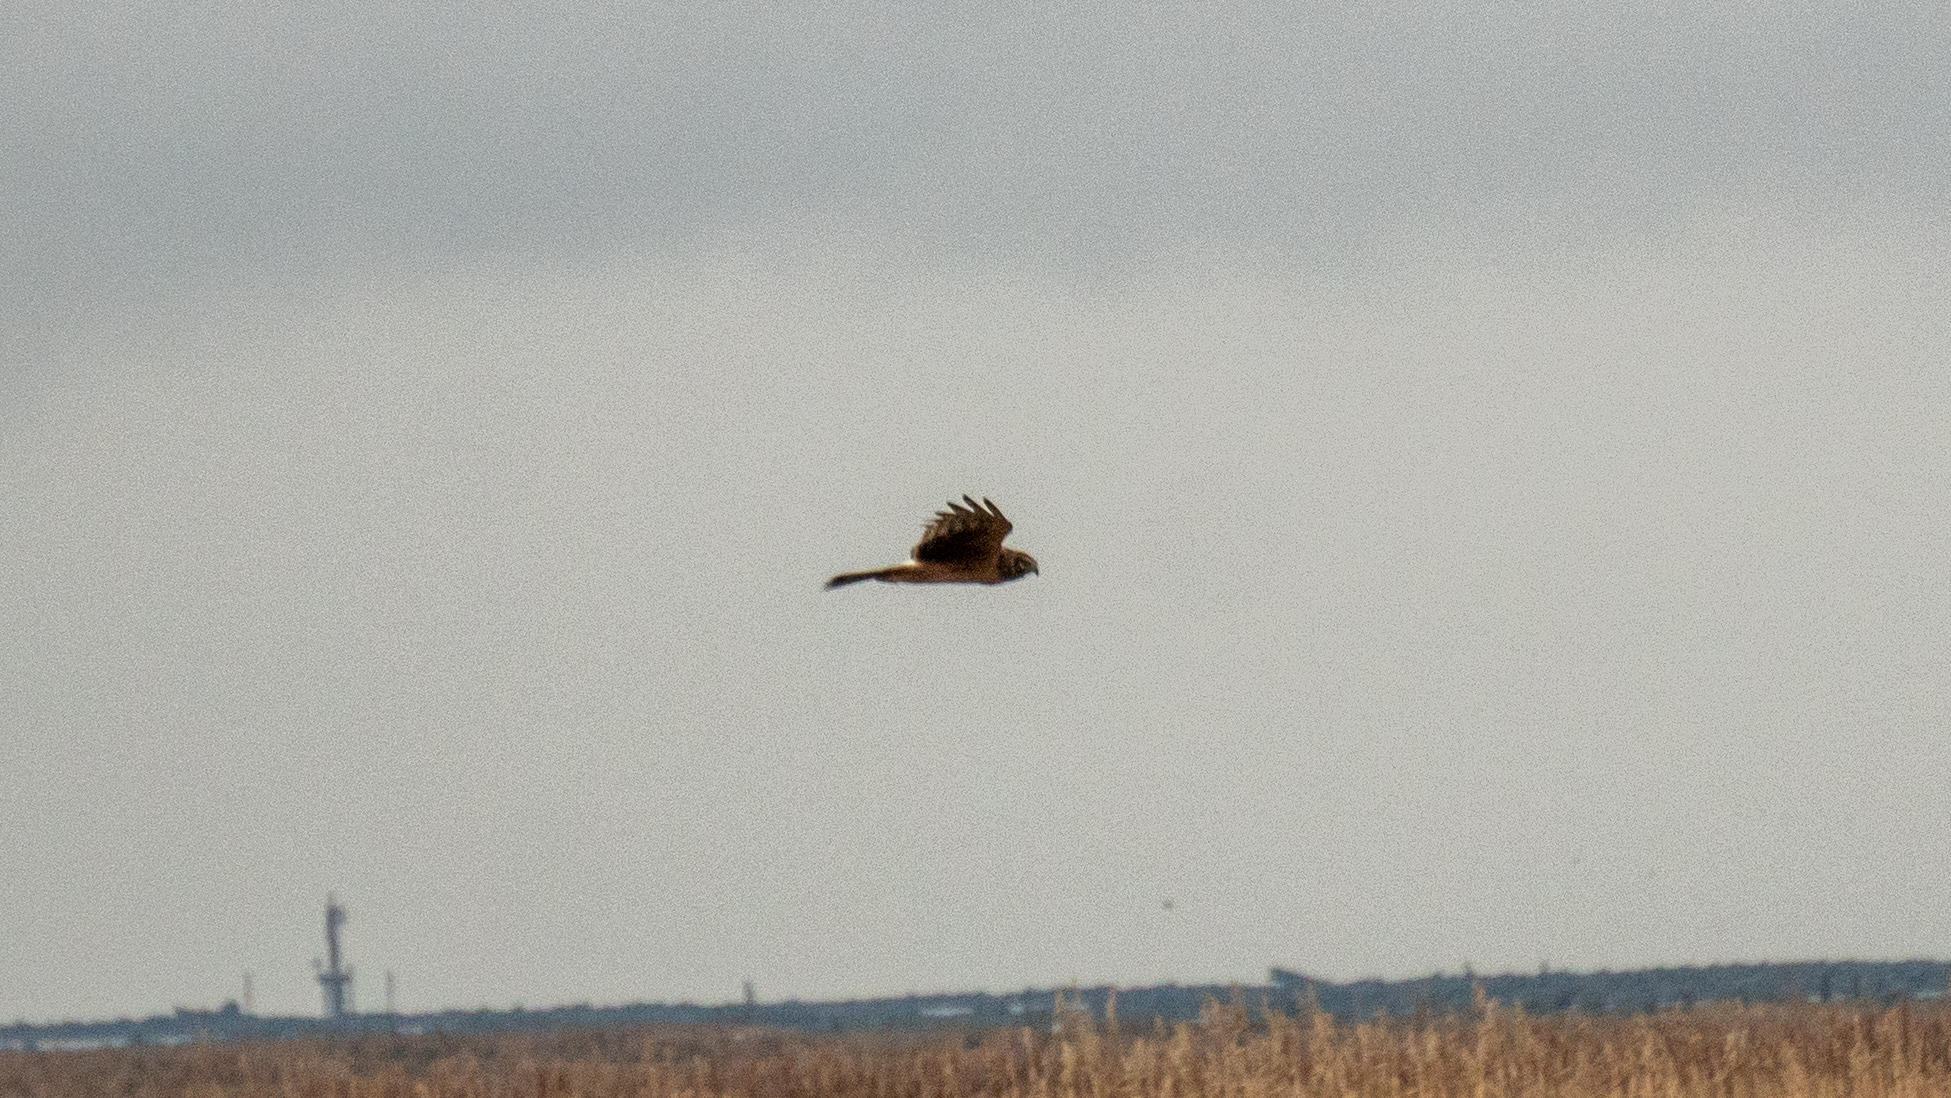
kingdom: Animalia
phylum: Chordata
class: Aves
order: Accipitriformes
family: Accipitridae
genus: Circus
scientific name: Circus cyaneus
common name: Hen harrier
